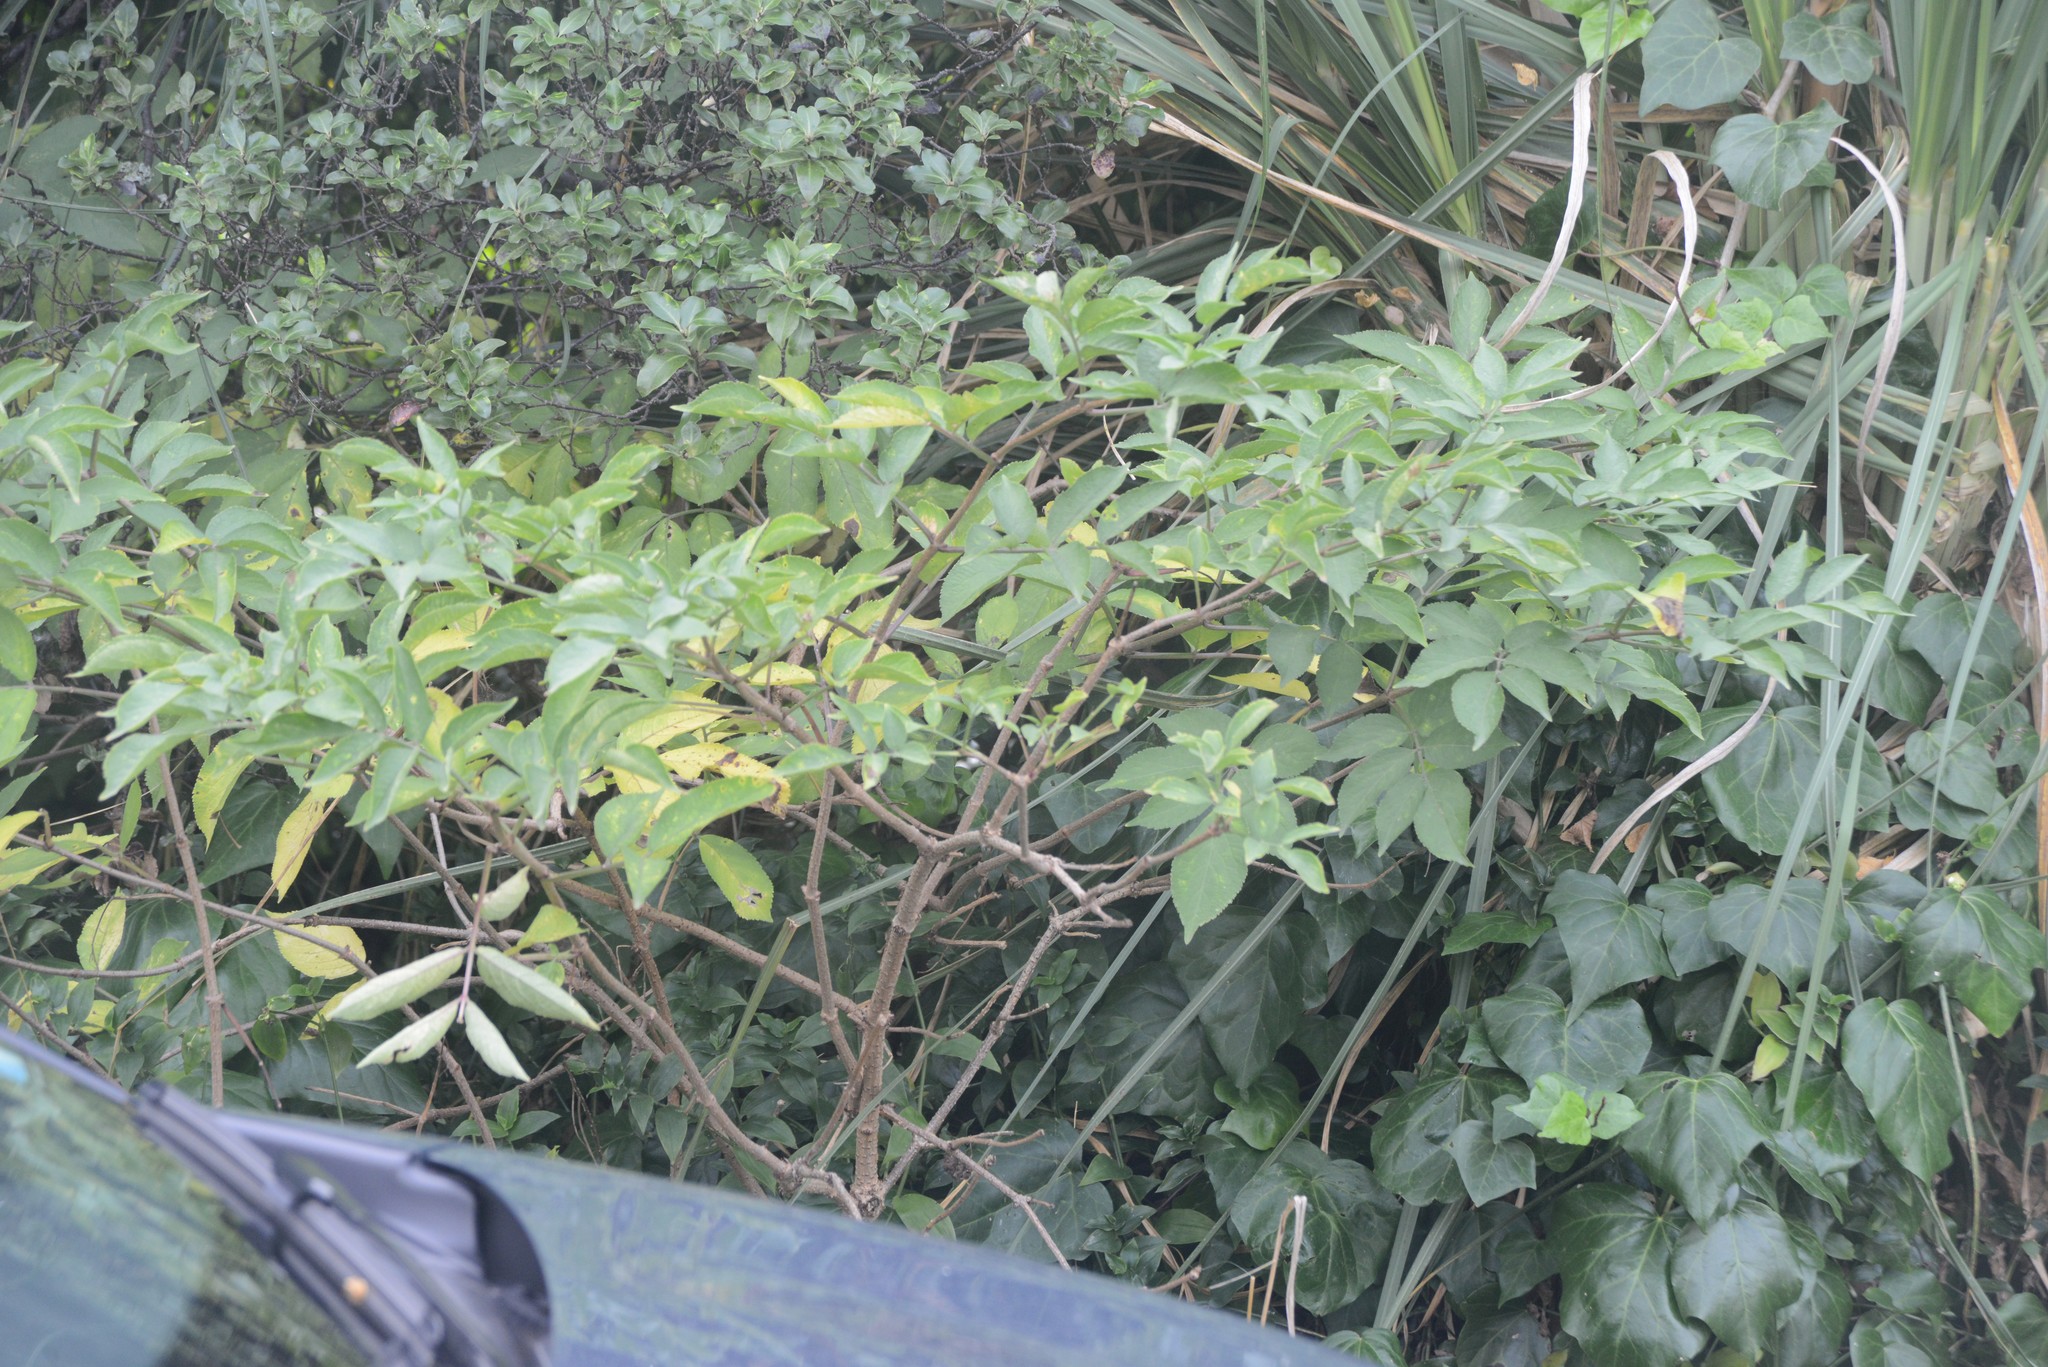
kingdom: Plantae
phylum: Tracheophyta
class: Magnoliopsida
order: Dipsacales
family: Viburnaceae
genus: Sambucus
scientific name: Sambucus nigra
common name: Elder
